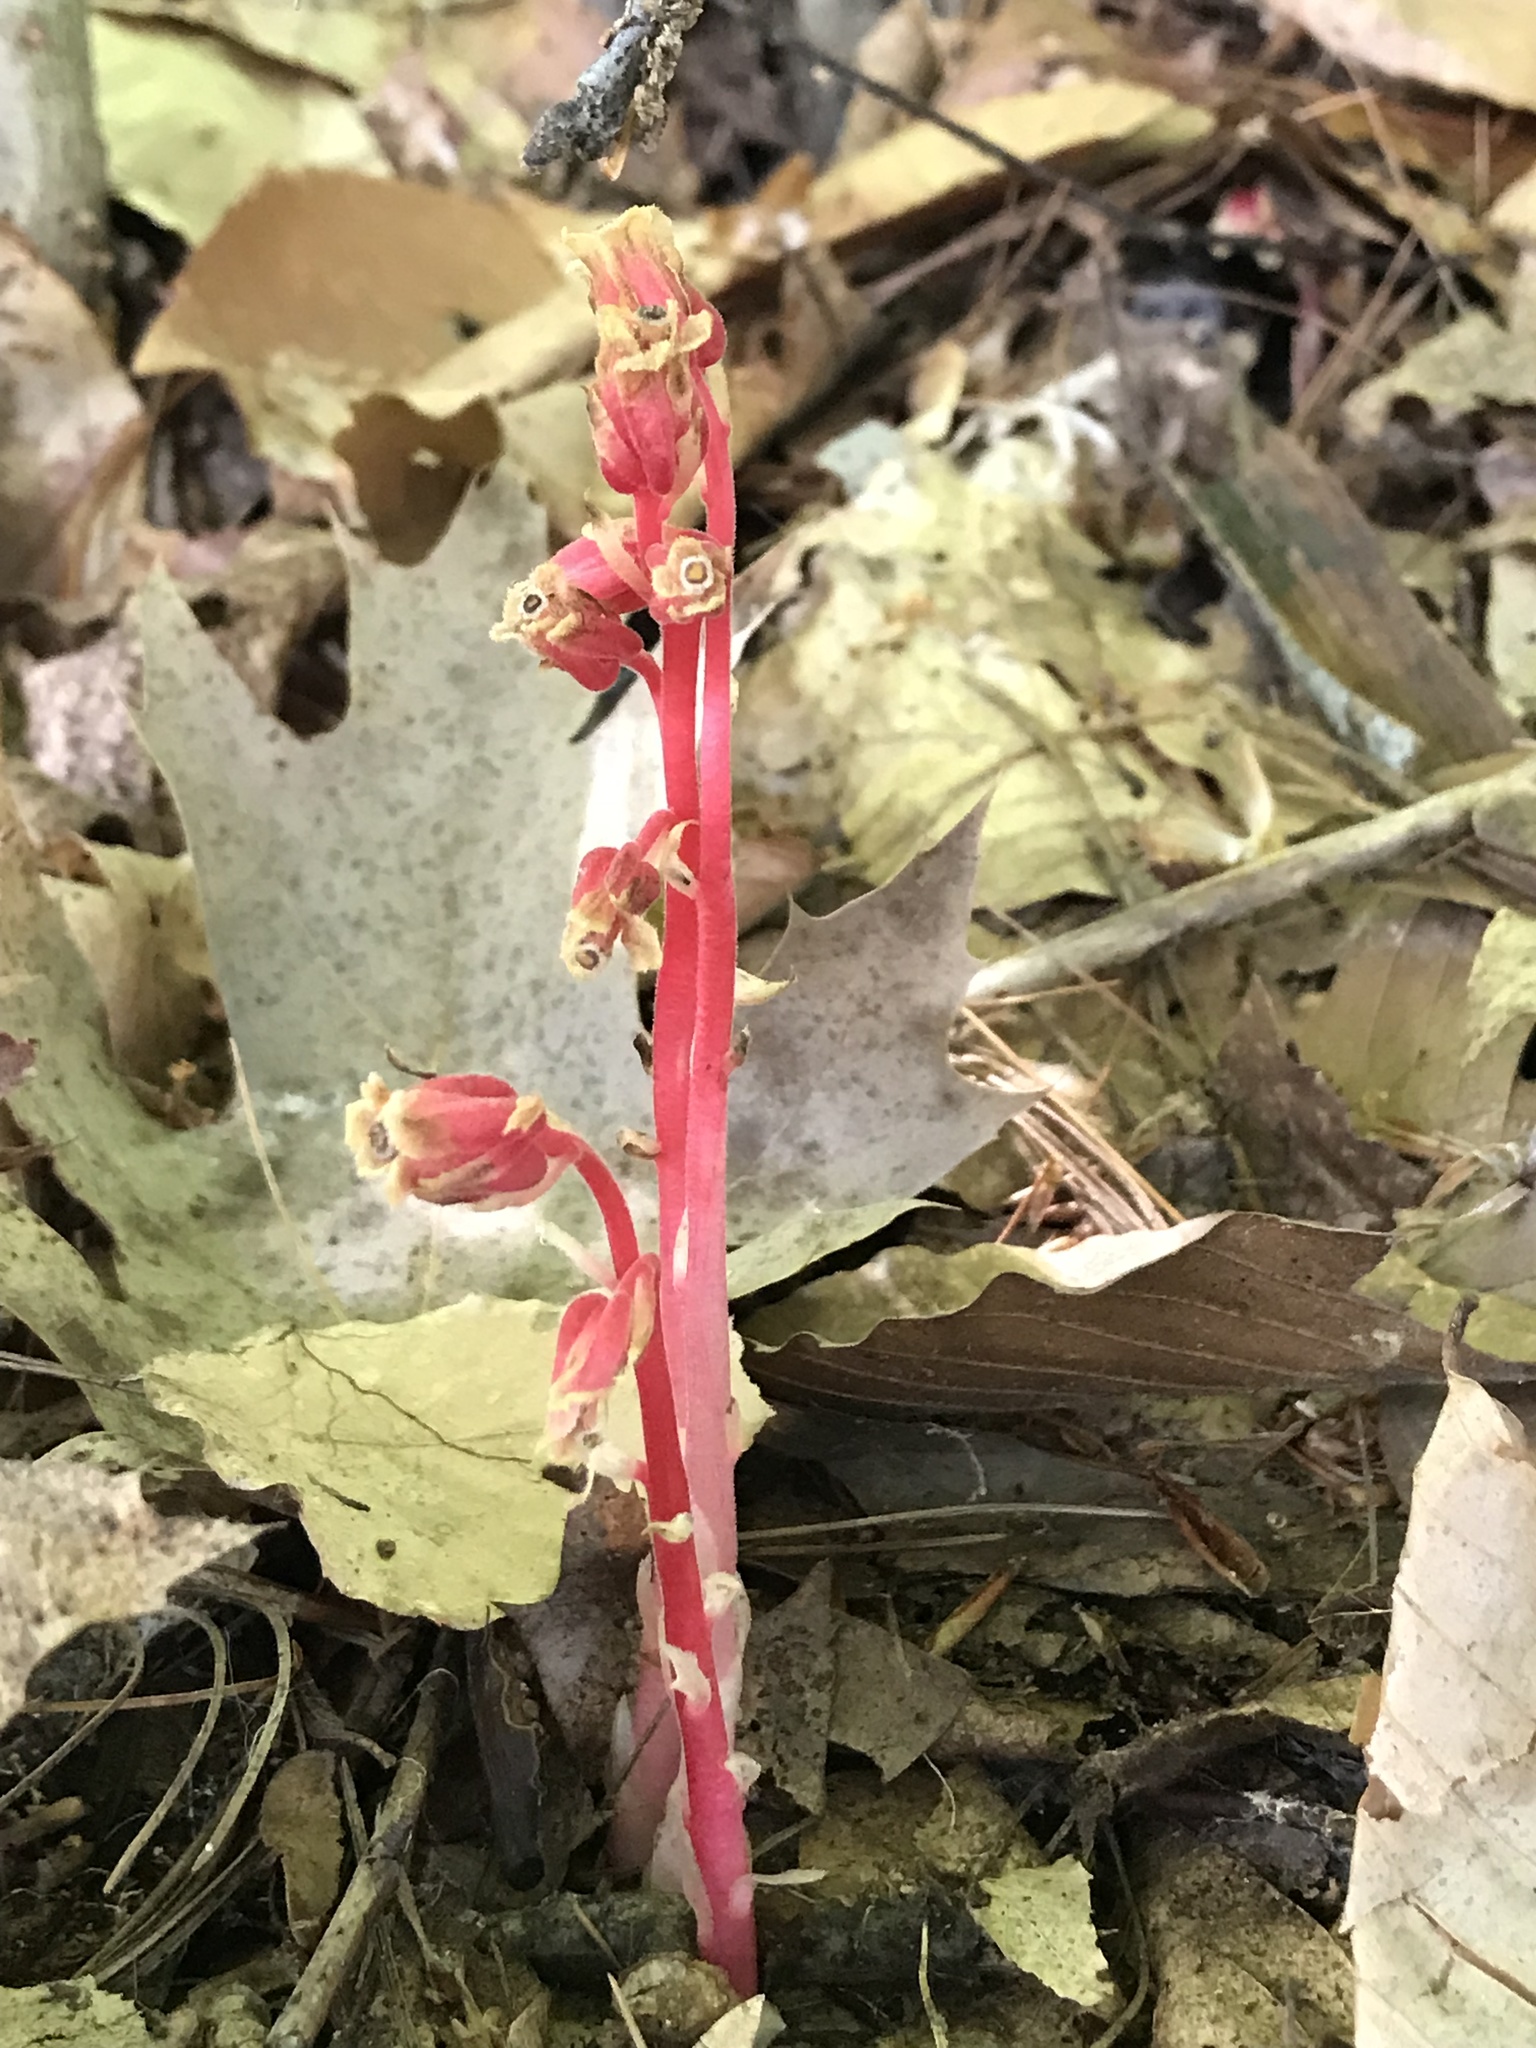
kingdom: Plantae
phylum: Tracheophyta
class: Magnoliopsida
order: Ericales
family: Ericaceae
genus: Hypopitys
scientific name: Hypopitys monotropa
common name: Yellow bird's-nest
